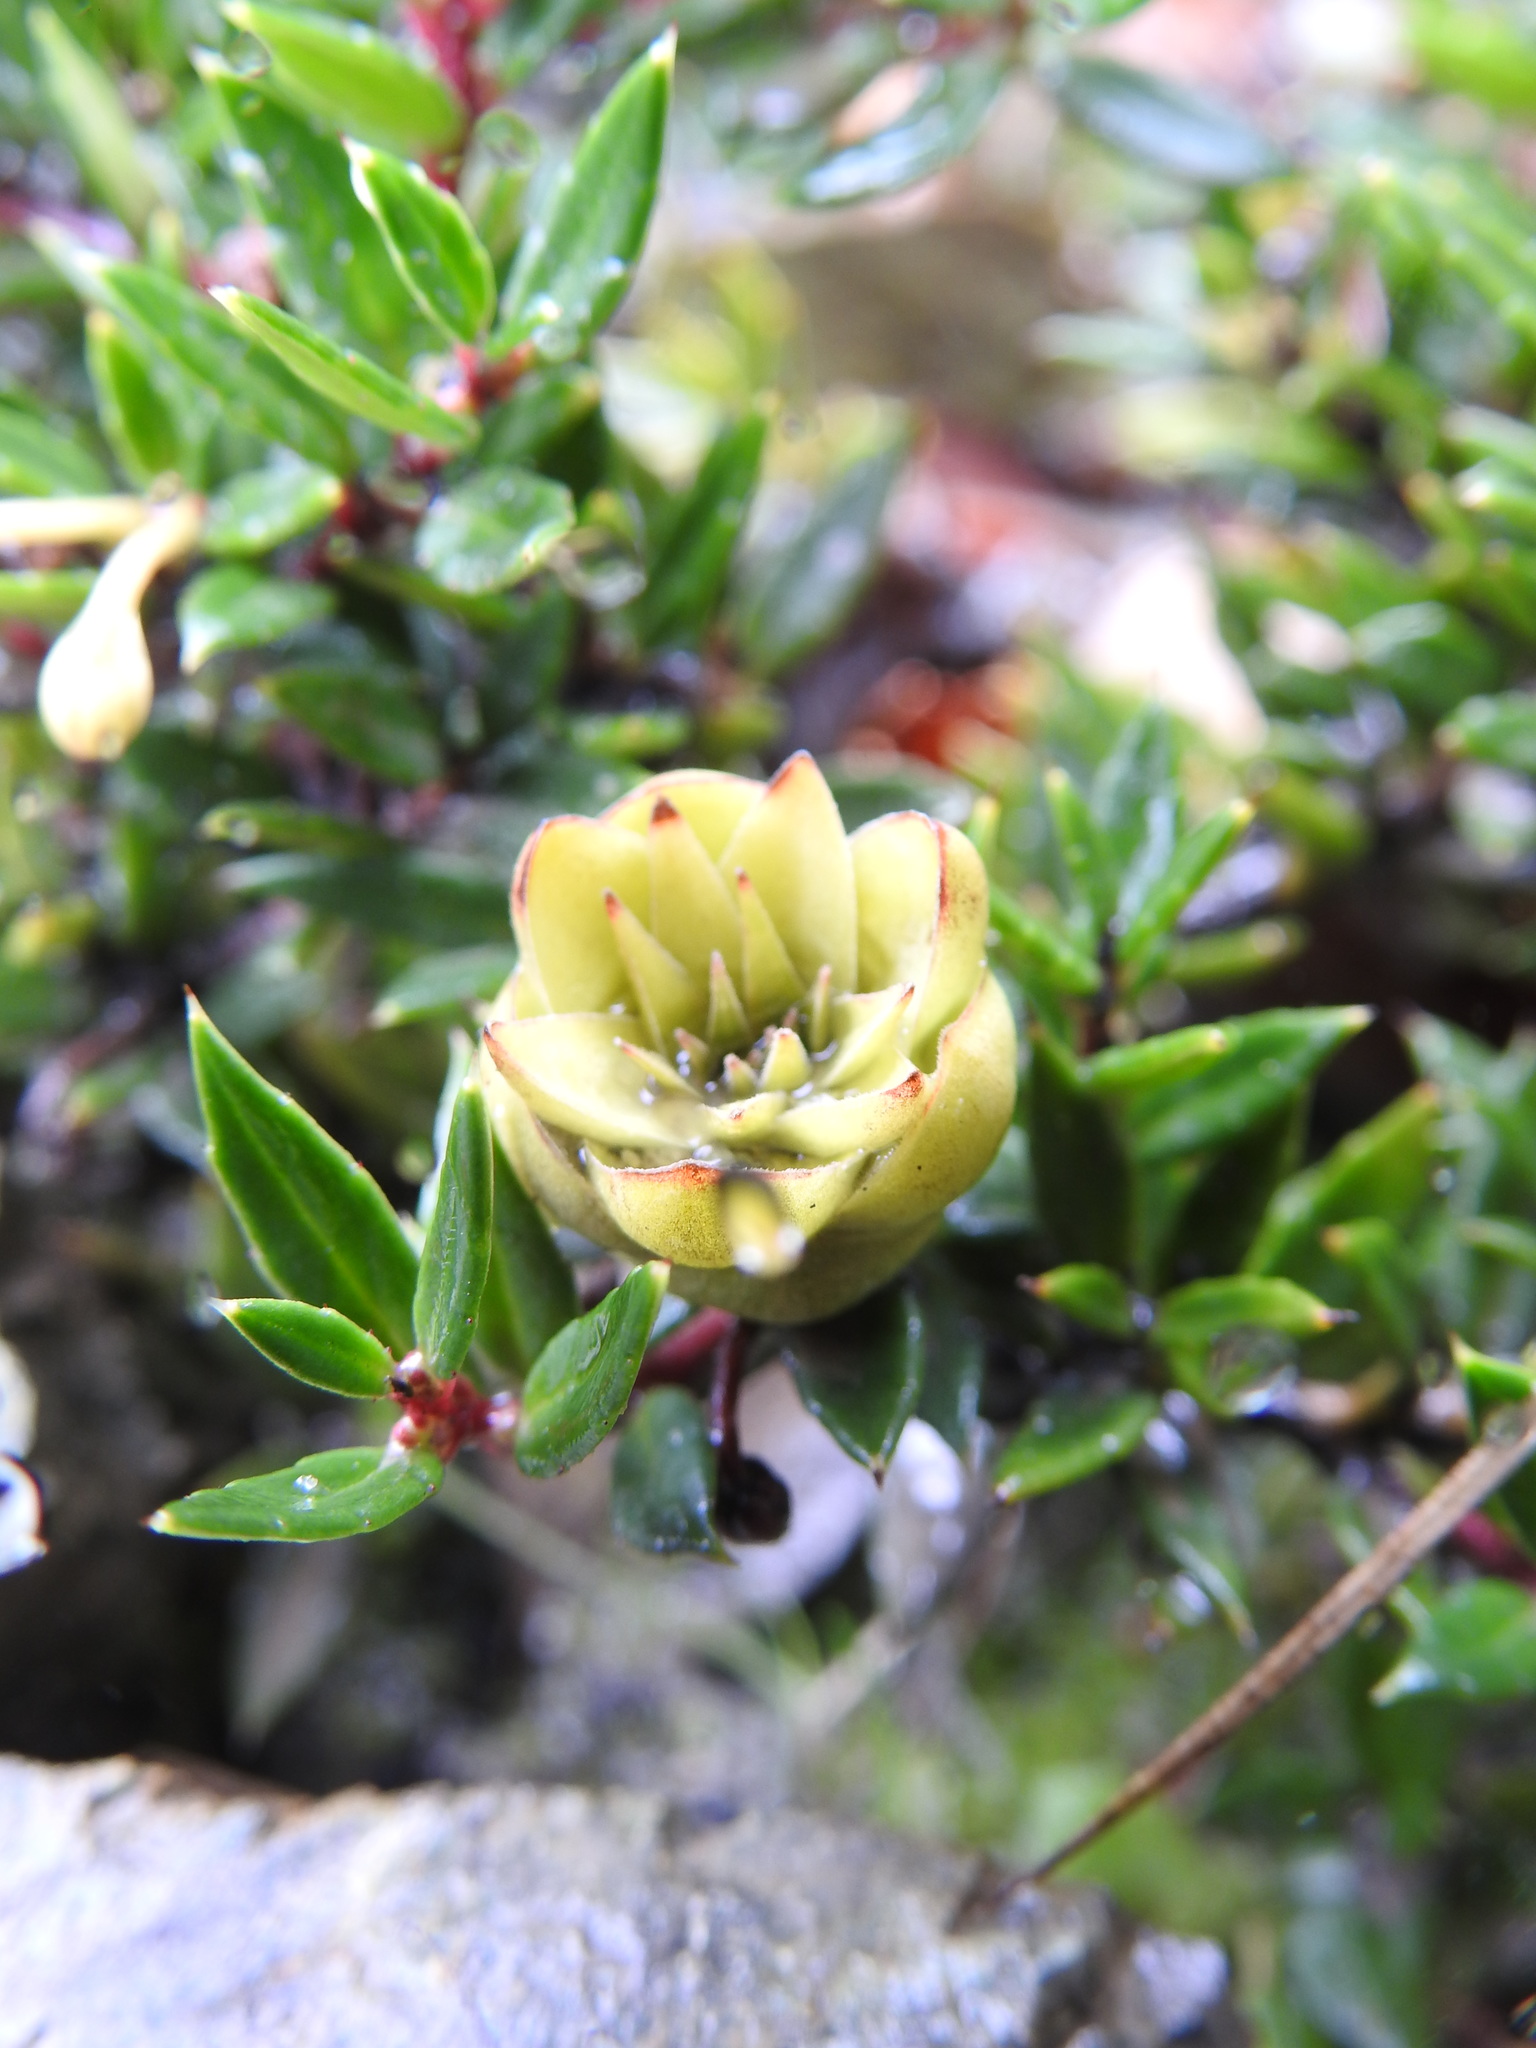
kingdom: Plantae
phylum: Tracheophyta
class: Magnoliopsida
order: Ericales
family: Ericaceae
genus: Gaultheria
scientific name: Gaultheria mucronata
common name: Prickly heath
